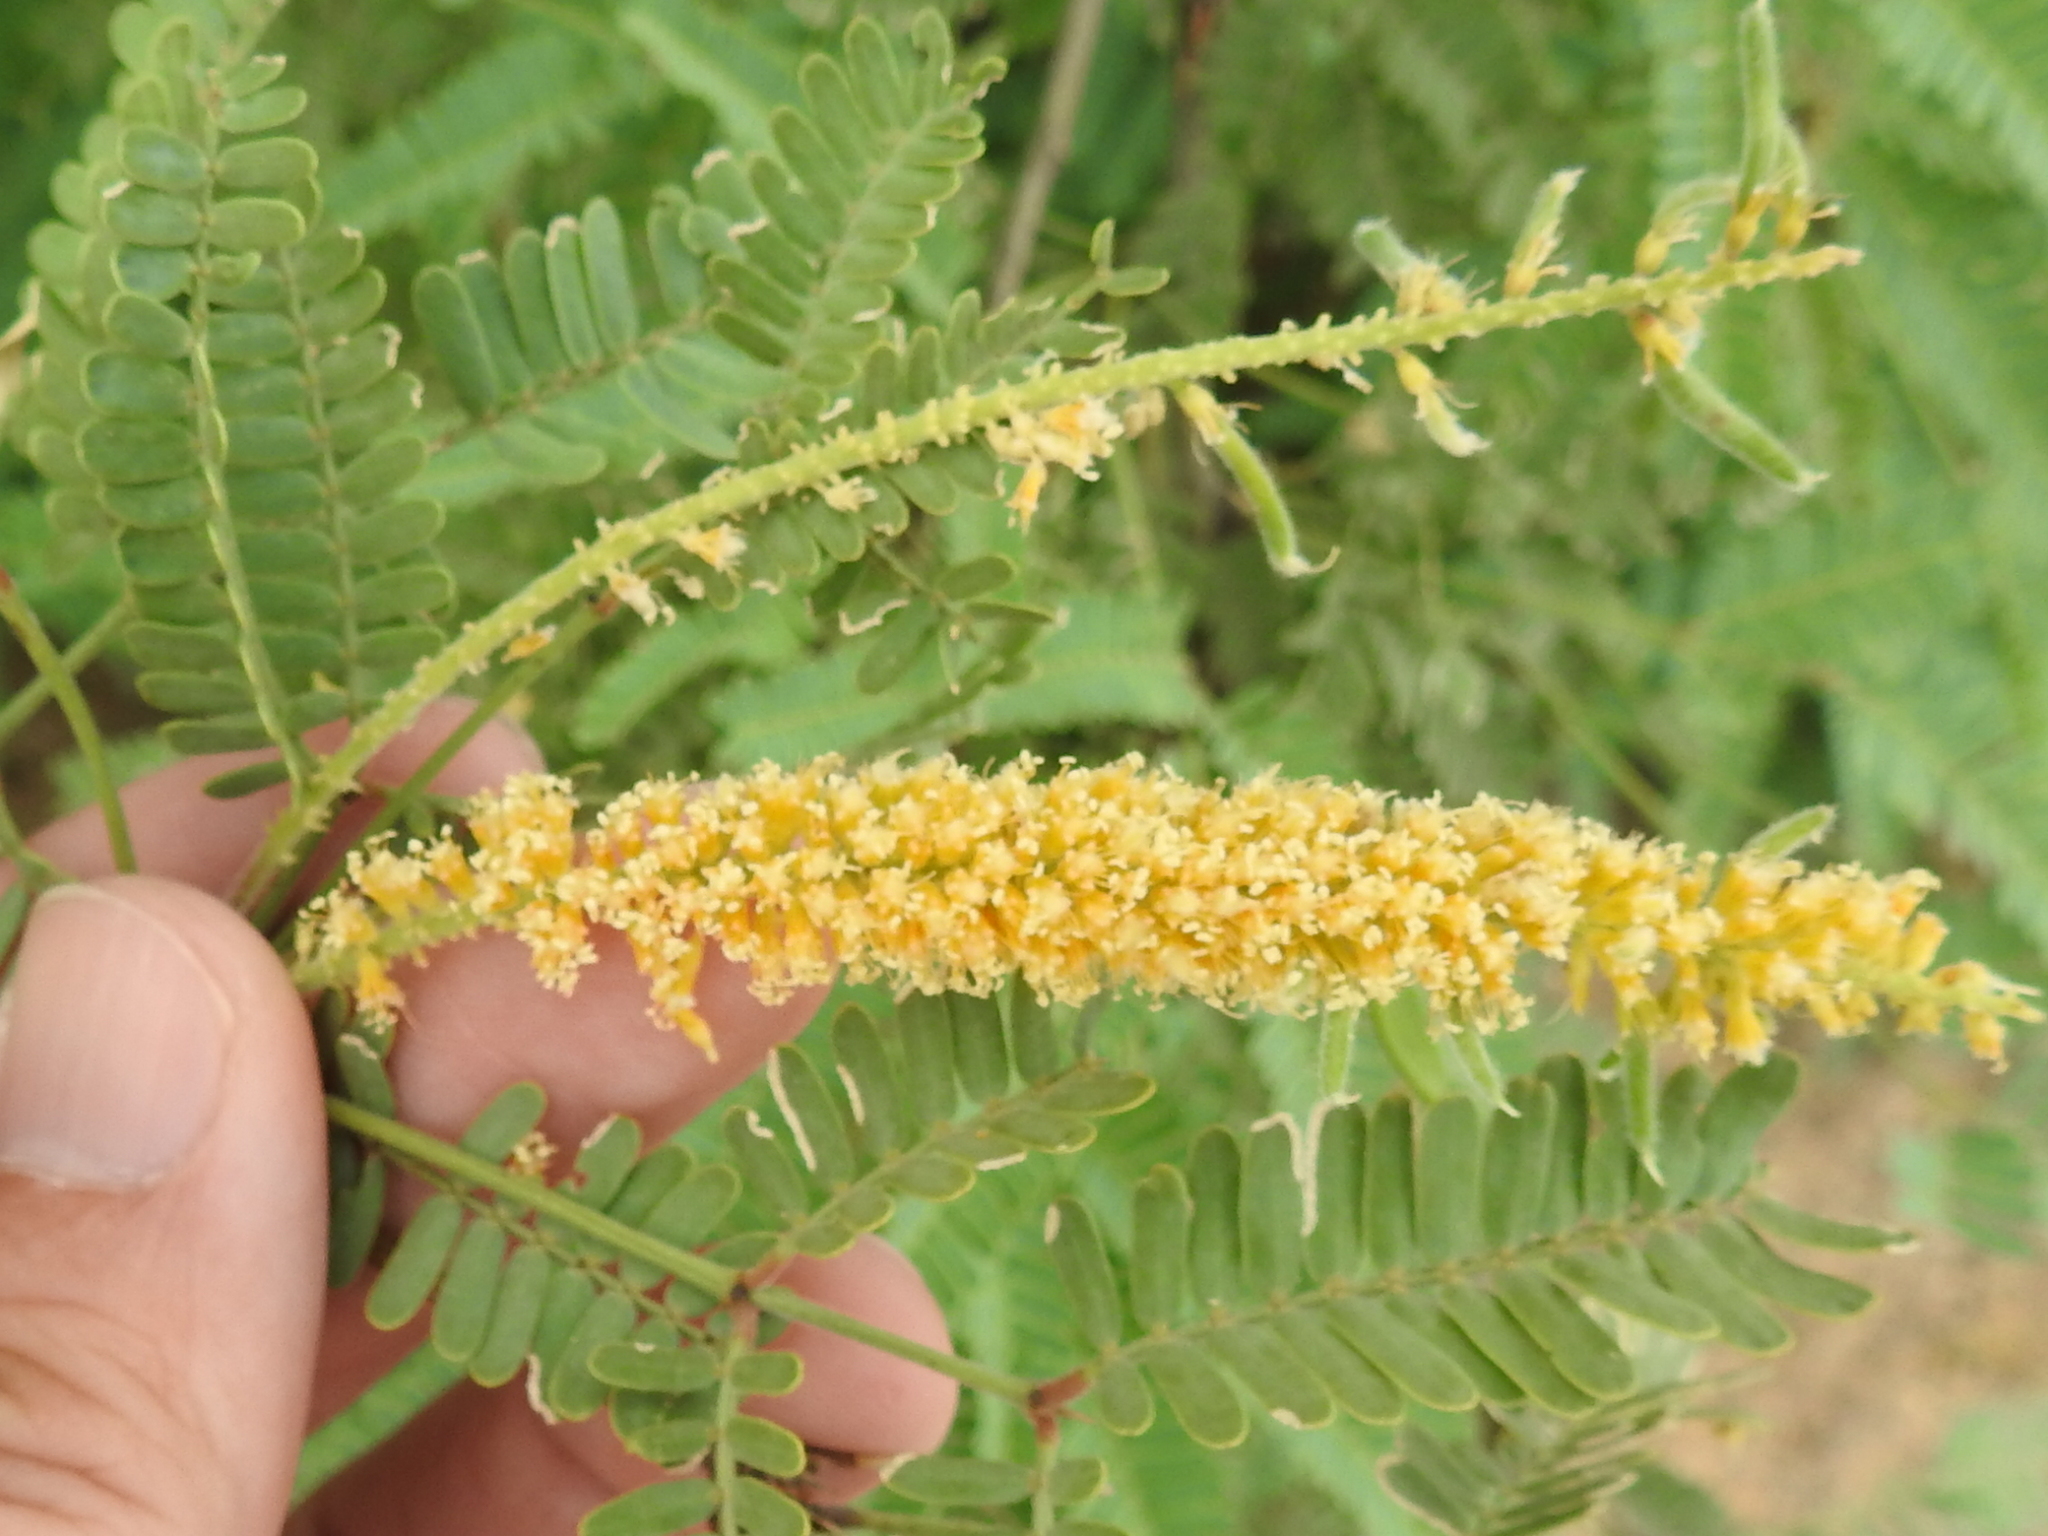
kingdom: Plantae
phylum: Tracheophyta
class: Magnoliopsida
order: Fabales
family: Fabaceae
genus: Prosopis
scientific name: Prosopis velutina
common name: Velvet mesquite
